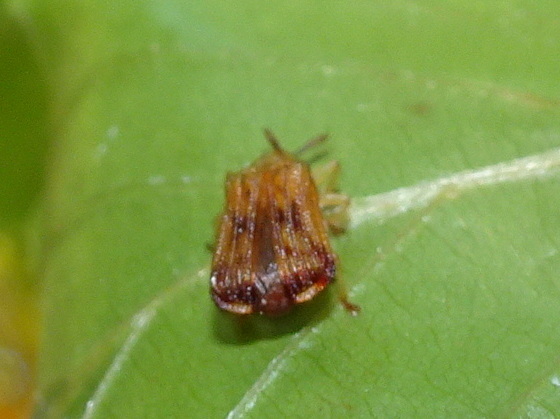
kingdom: Animalia
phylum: Arthropoda
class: Insecta
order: Coleoptera
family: Chrysomelidae
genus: Baliosus
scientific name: Baliosus nervosus
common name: Basswood leaf miner
